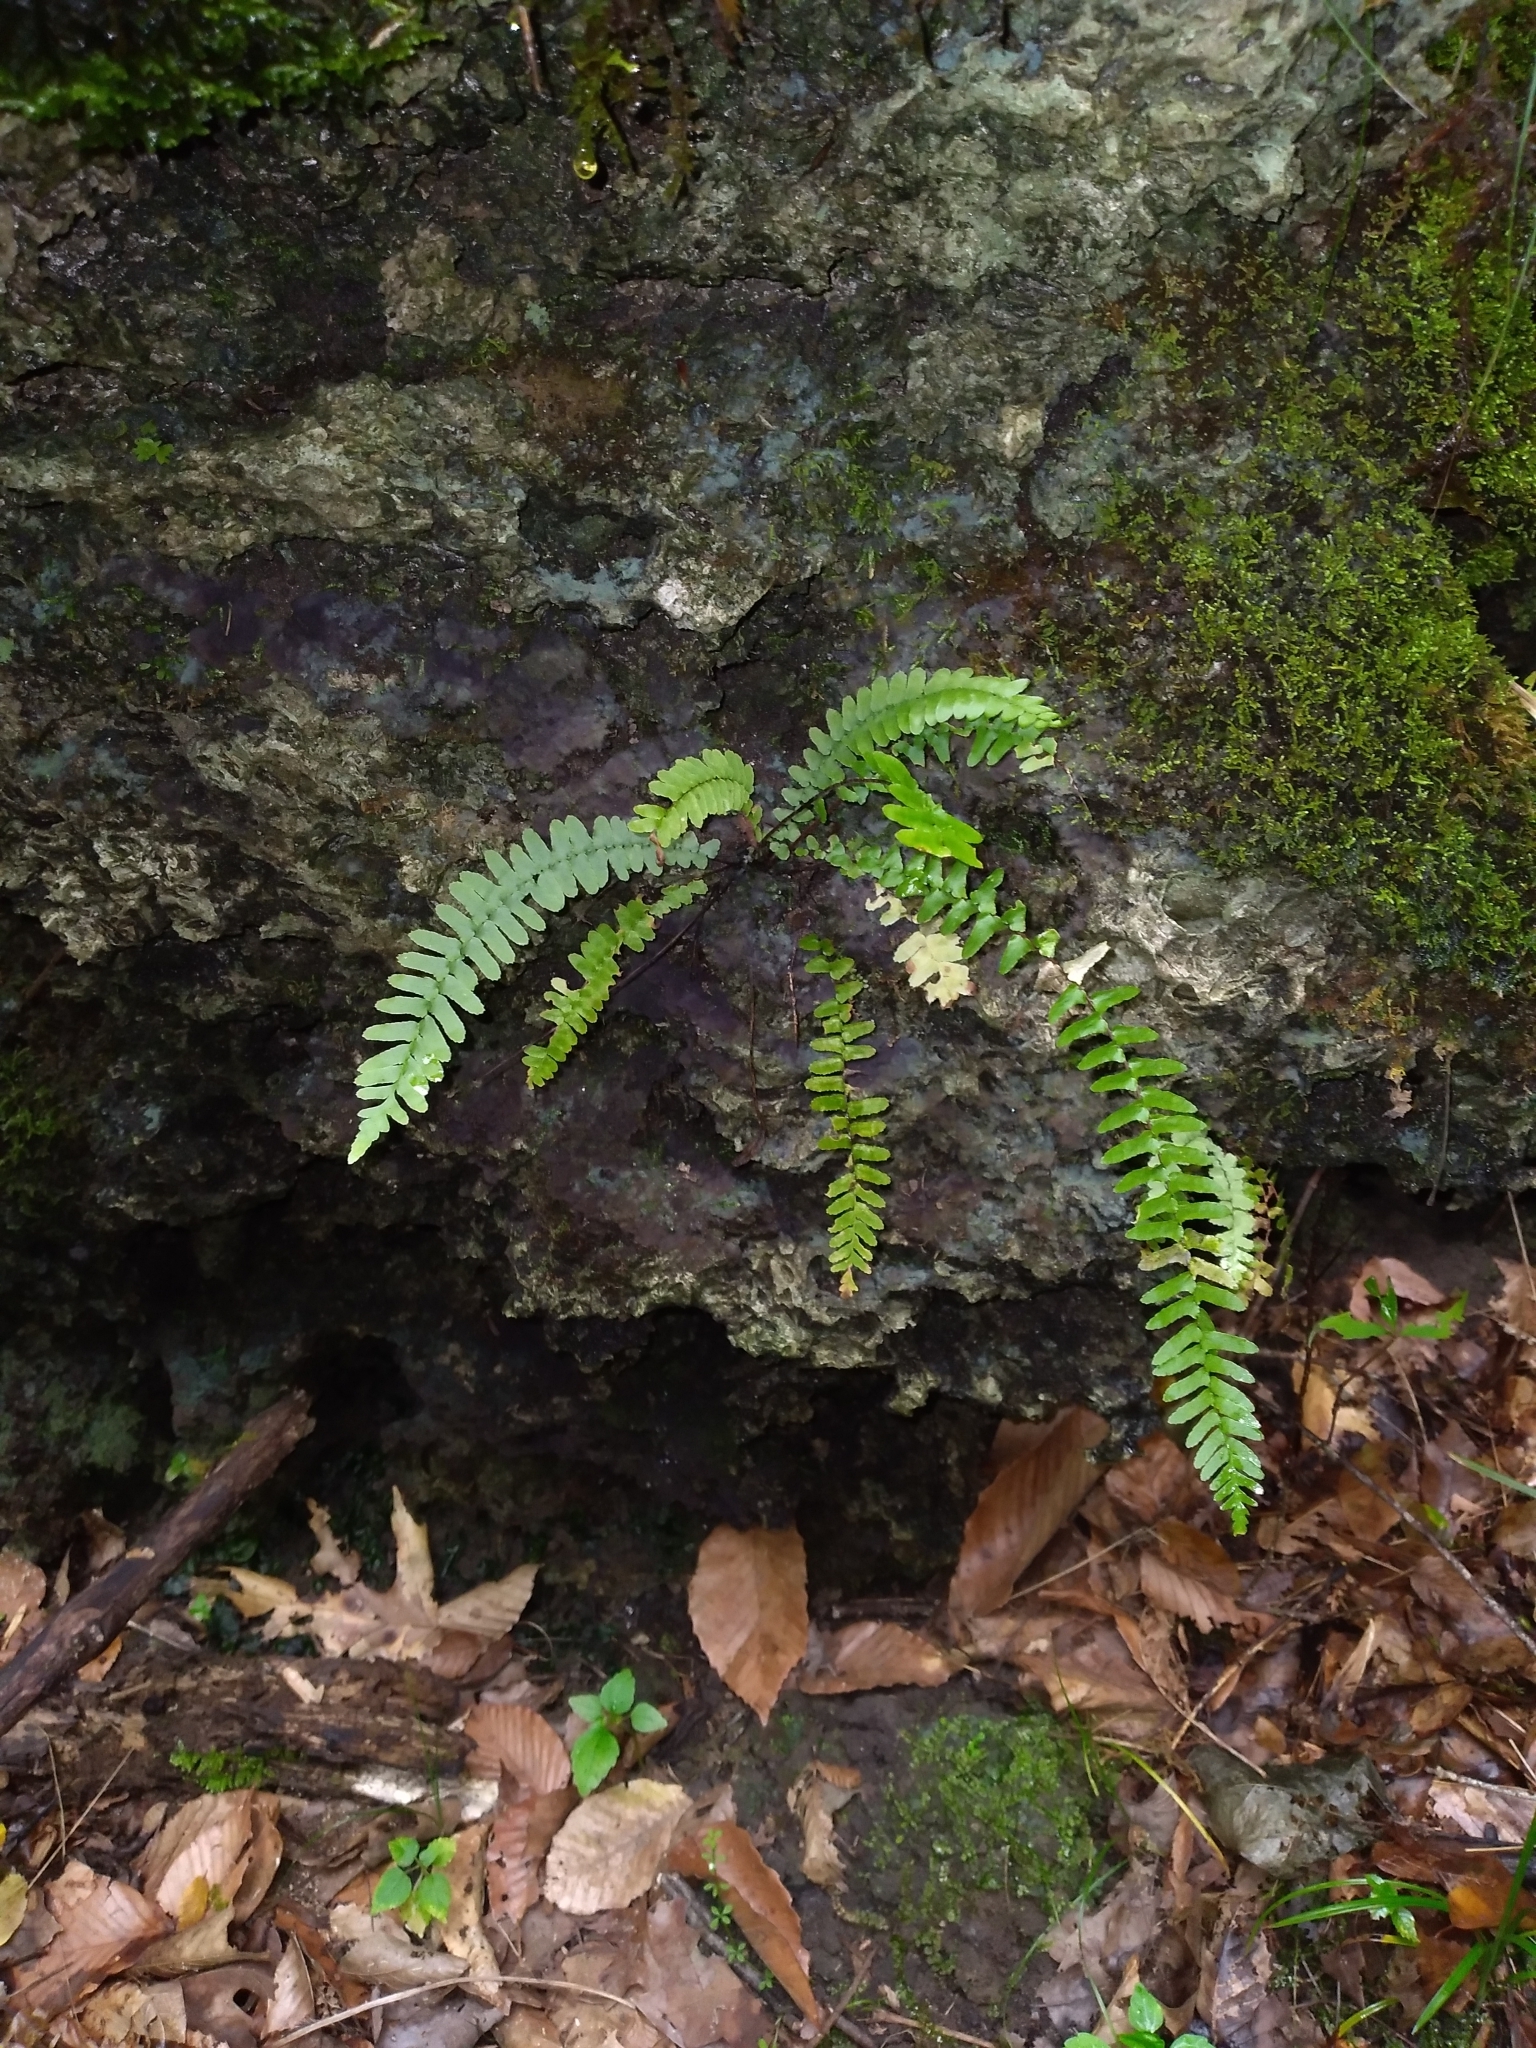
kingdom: Plantae
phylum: Tracheophyta
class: Polypodiopsida
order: Polypodiales
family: Aspleniaceae
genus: Asplenium
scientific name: Asplenium platyneuron
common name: Ebony spleenwort
